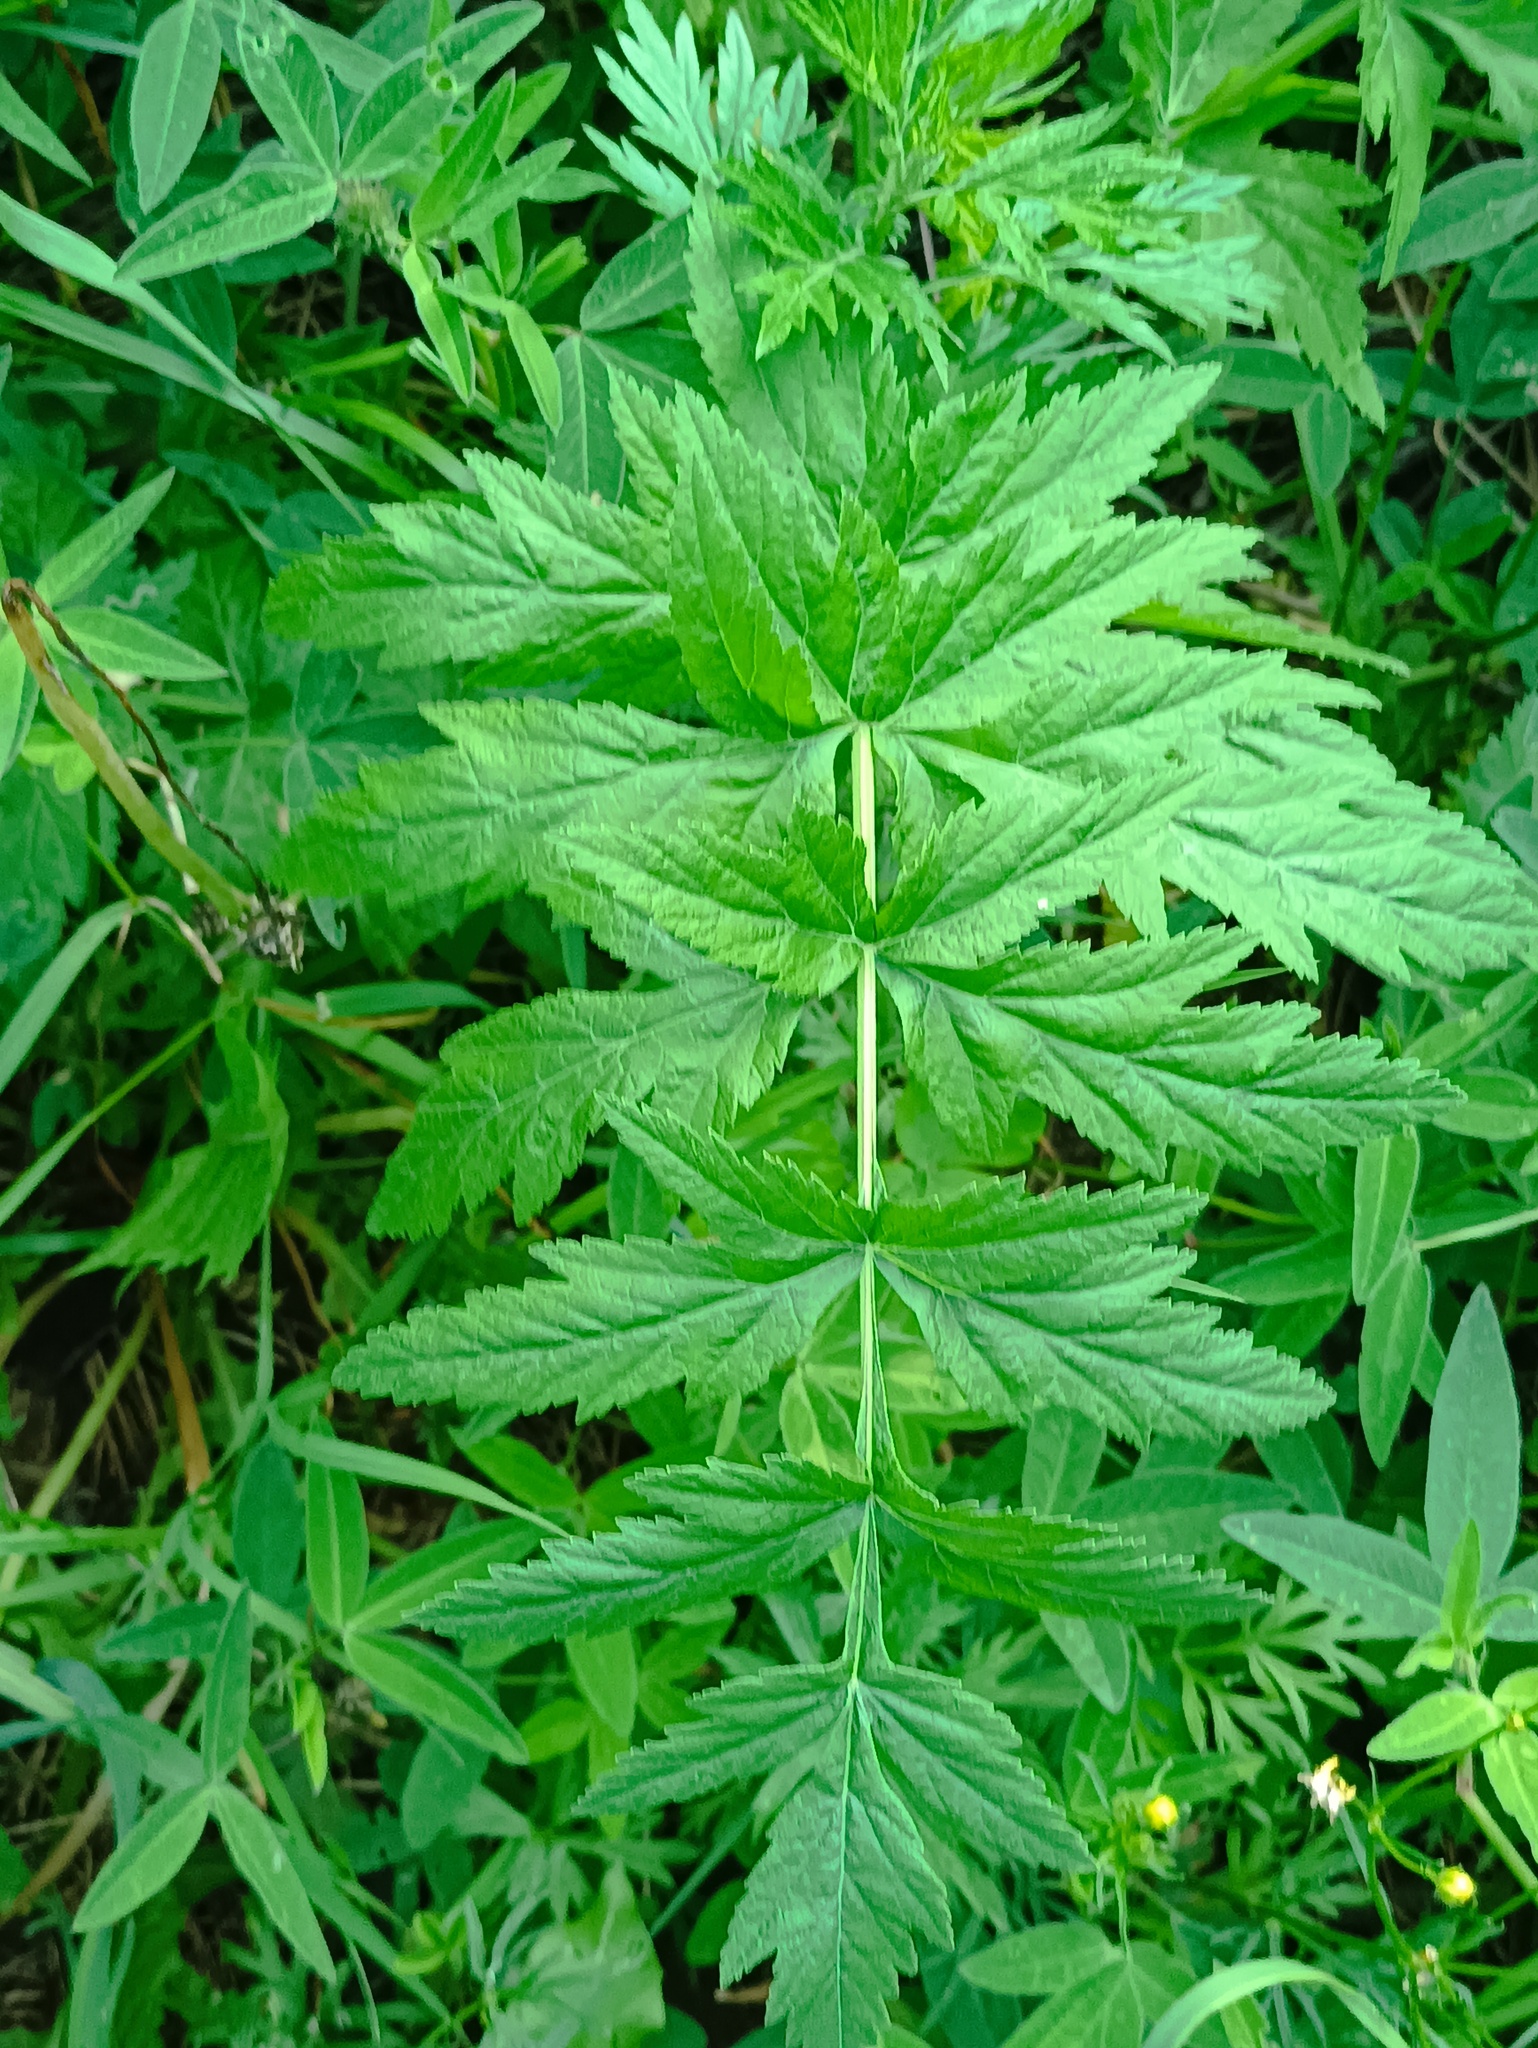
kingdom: Plantae
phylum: Tracheophyta
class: Magnoliopsida
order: Apiales
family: Apiaceae
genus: Pastinaca
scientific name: Pastinaca sativa
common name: Wild parsnip
